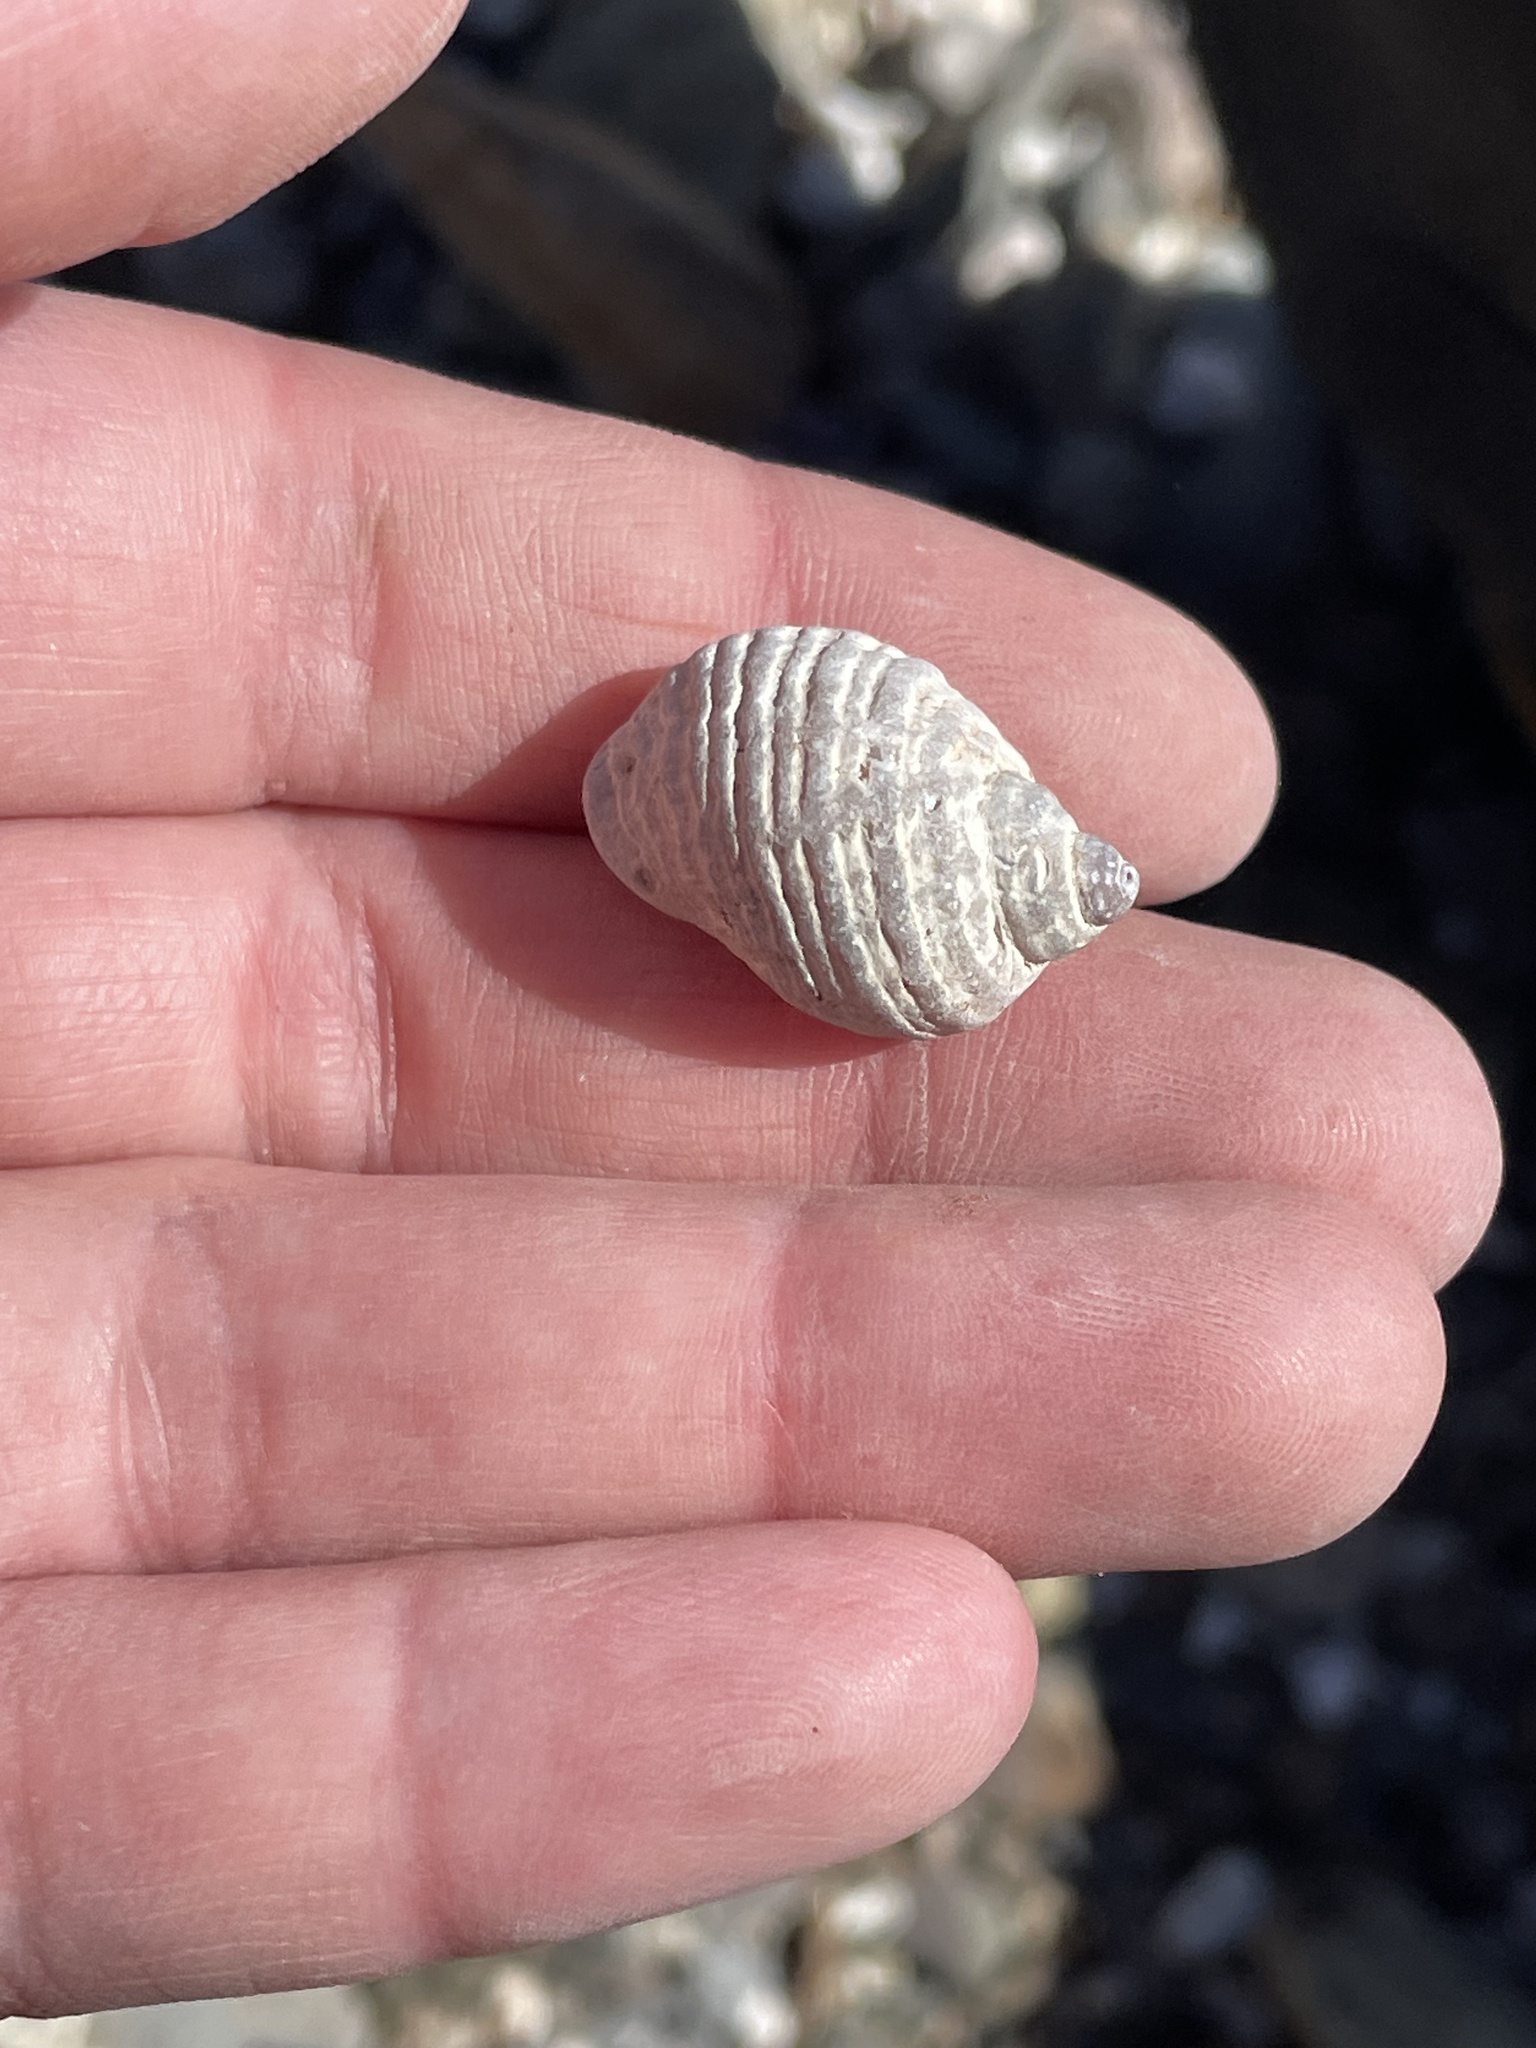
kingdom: Animalia
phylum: Mollusca
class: Gastropoda
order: Neogastropoda
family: Muricidae
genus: Nucella
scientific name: Nucella lapillus
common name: Dog whelk
